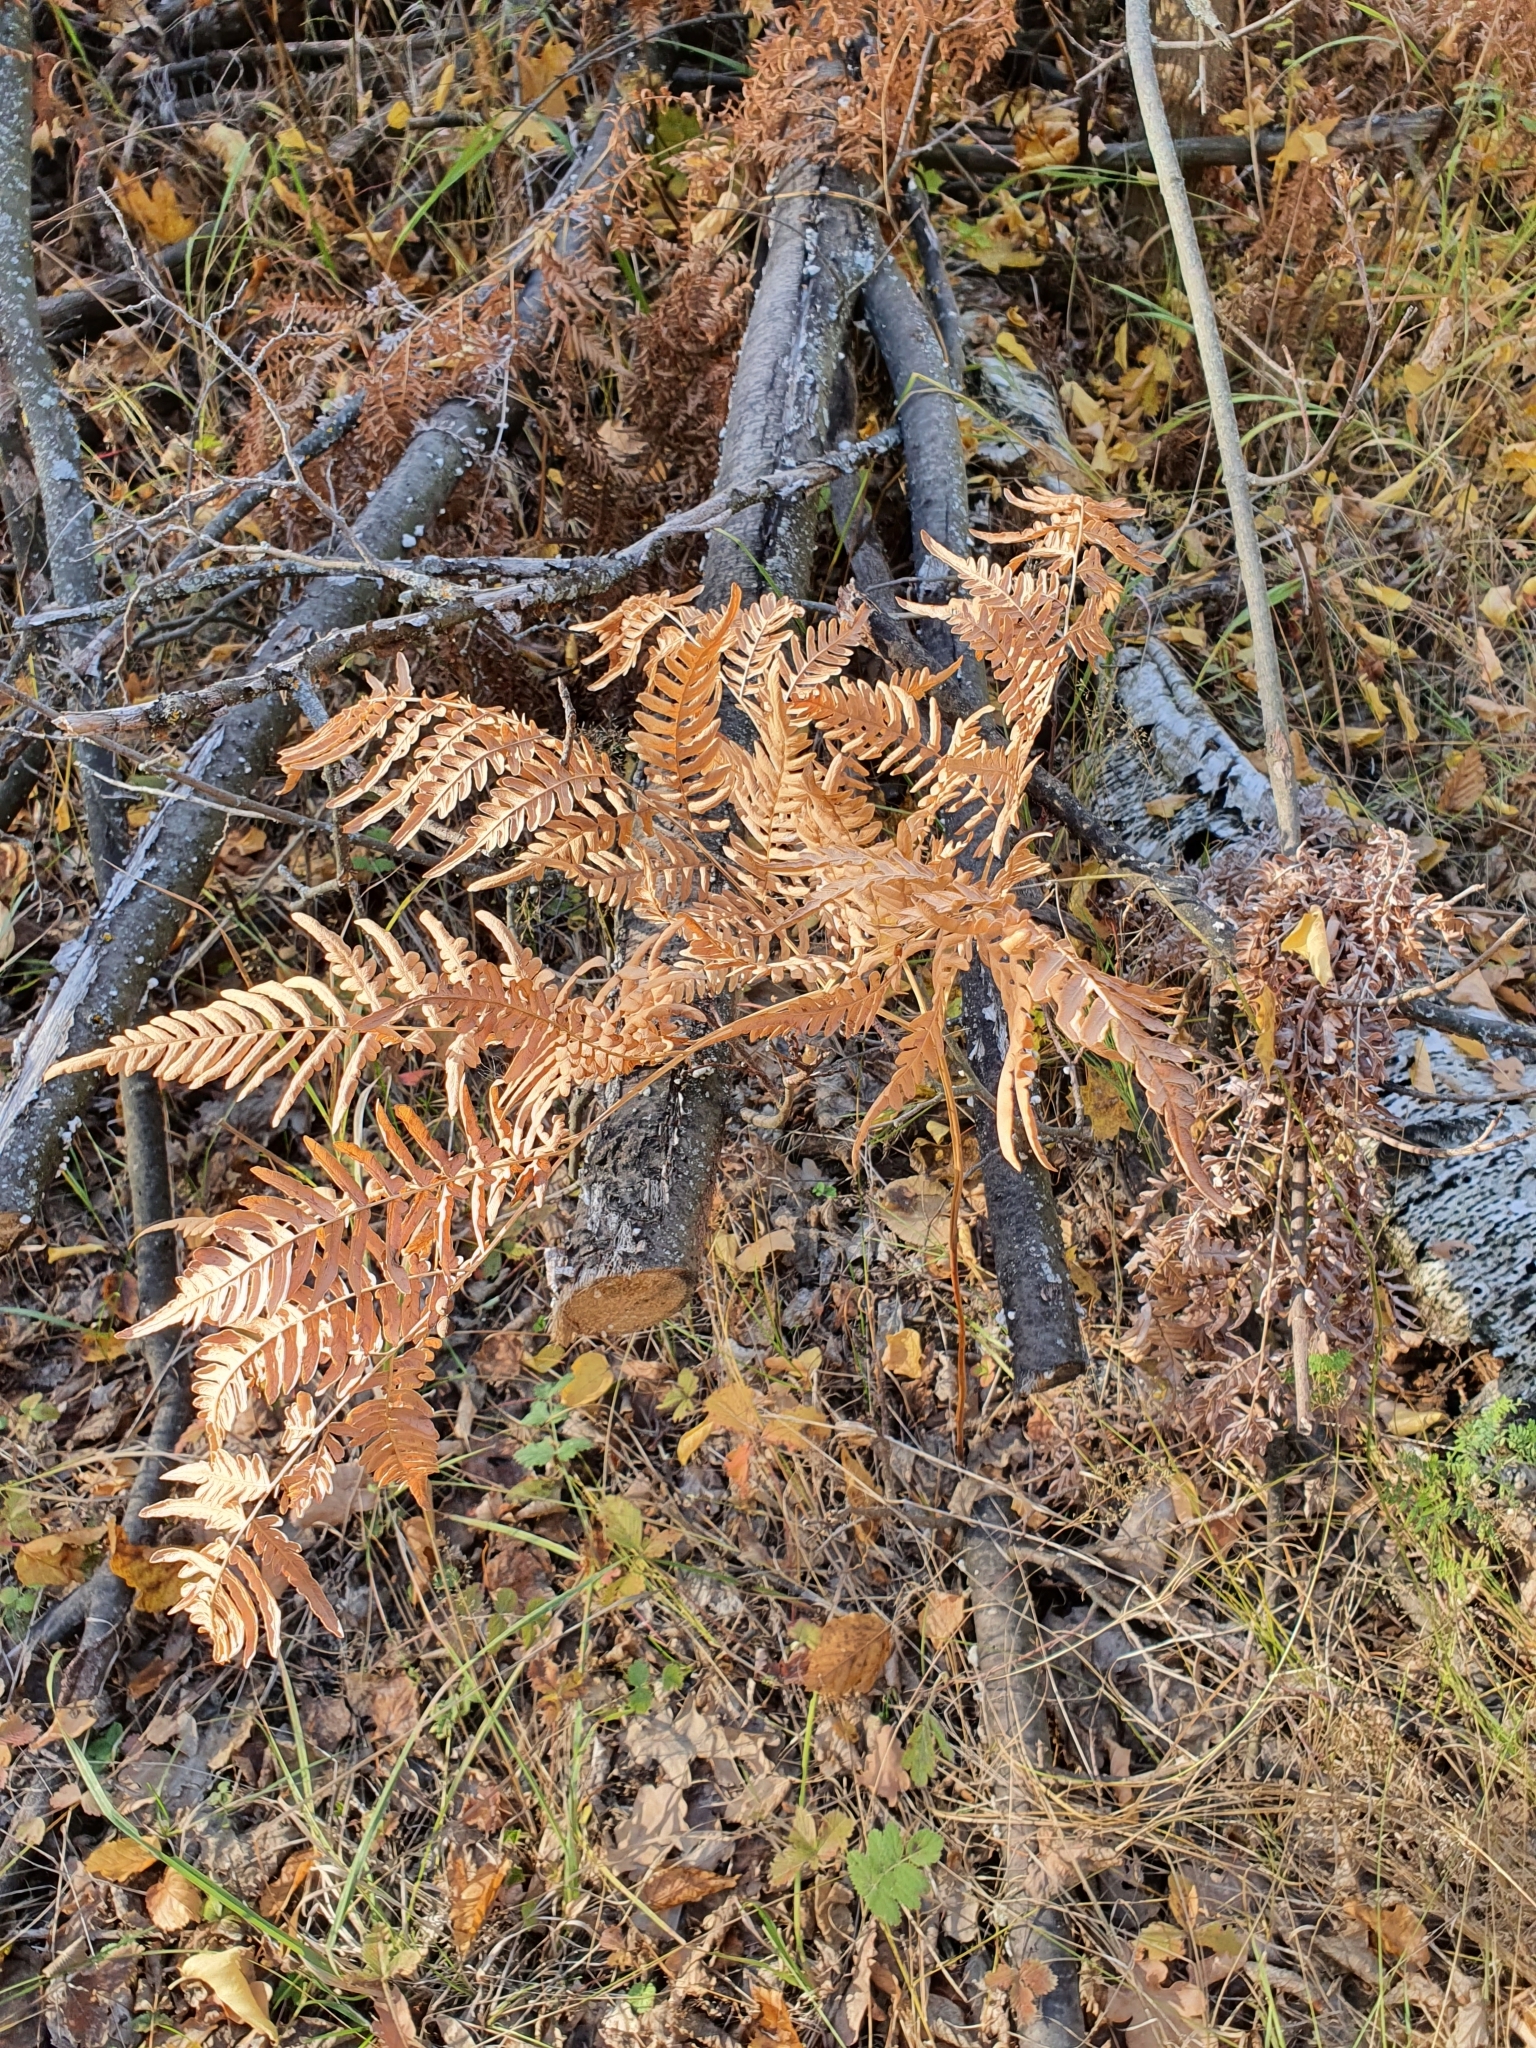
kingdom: Plantae
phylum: Tracheophyta
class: Polypodiopsida
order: Polypodiales
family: Dennstaedtiaceae
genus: Pteridium
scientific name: Pteridium aquilinum
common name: Bracken
